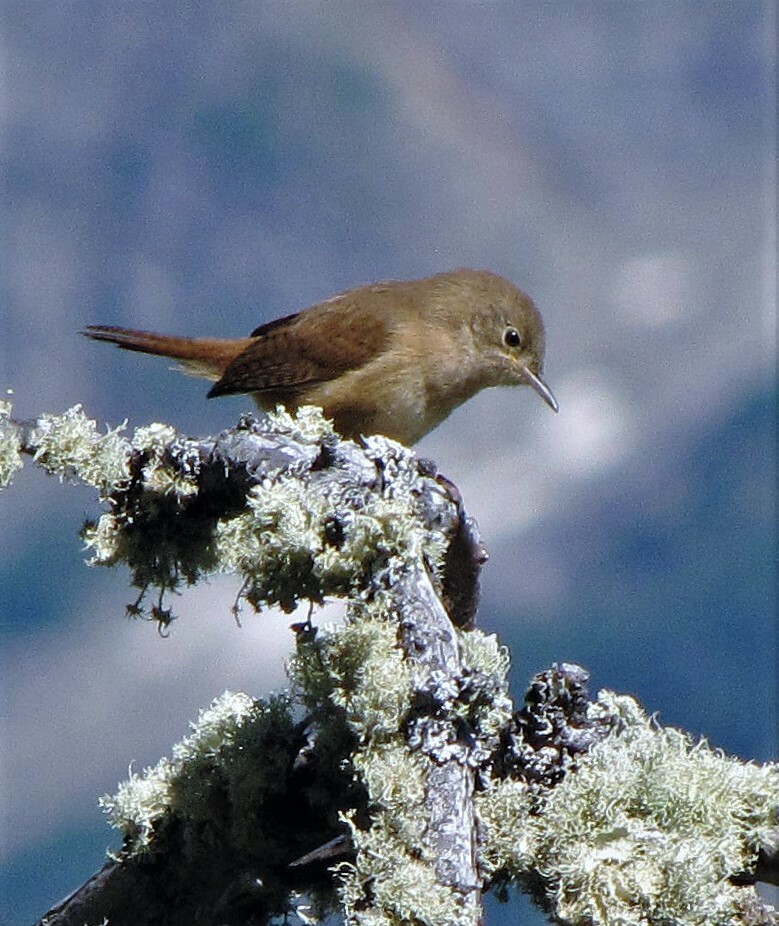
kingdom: Animalia
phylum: Chordata
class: Aves
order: Passeriformes
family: Troglodytidae
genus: Troglodytes
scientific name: Troglodytes aedon
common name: House wren
